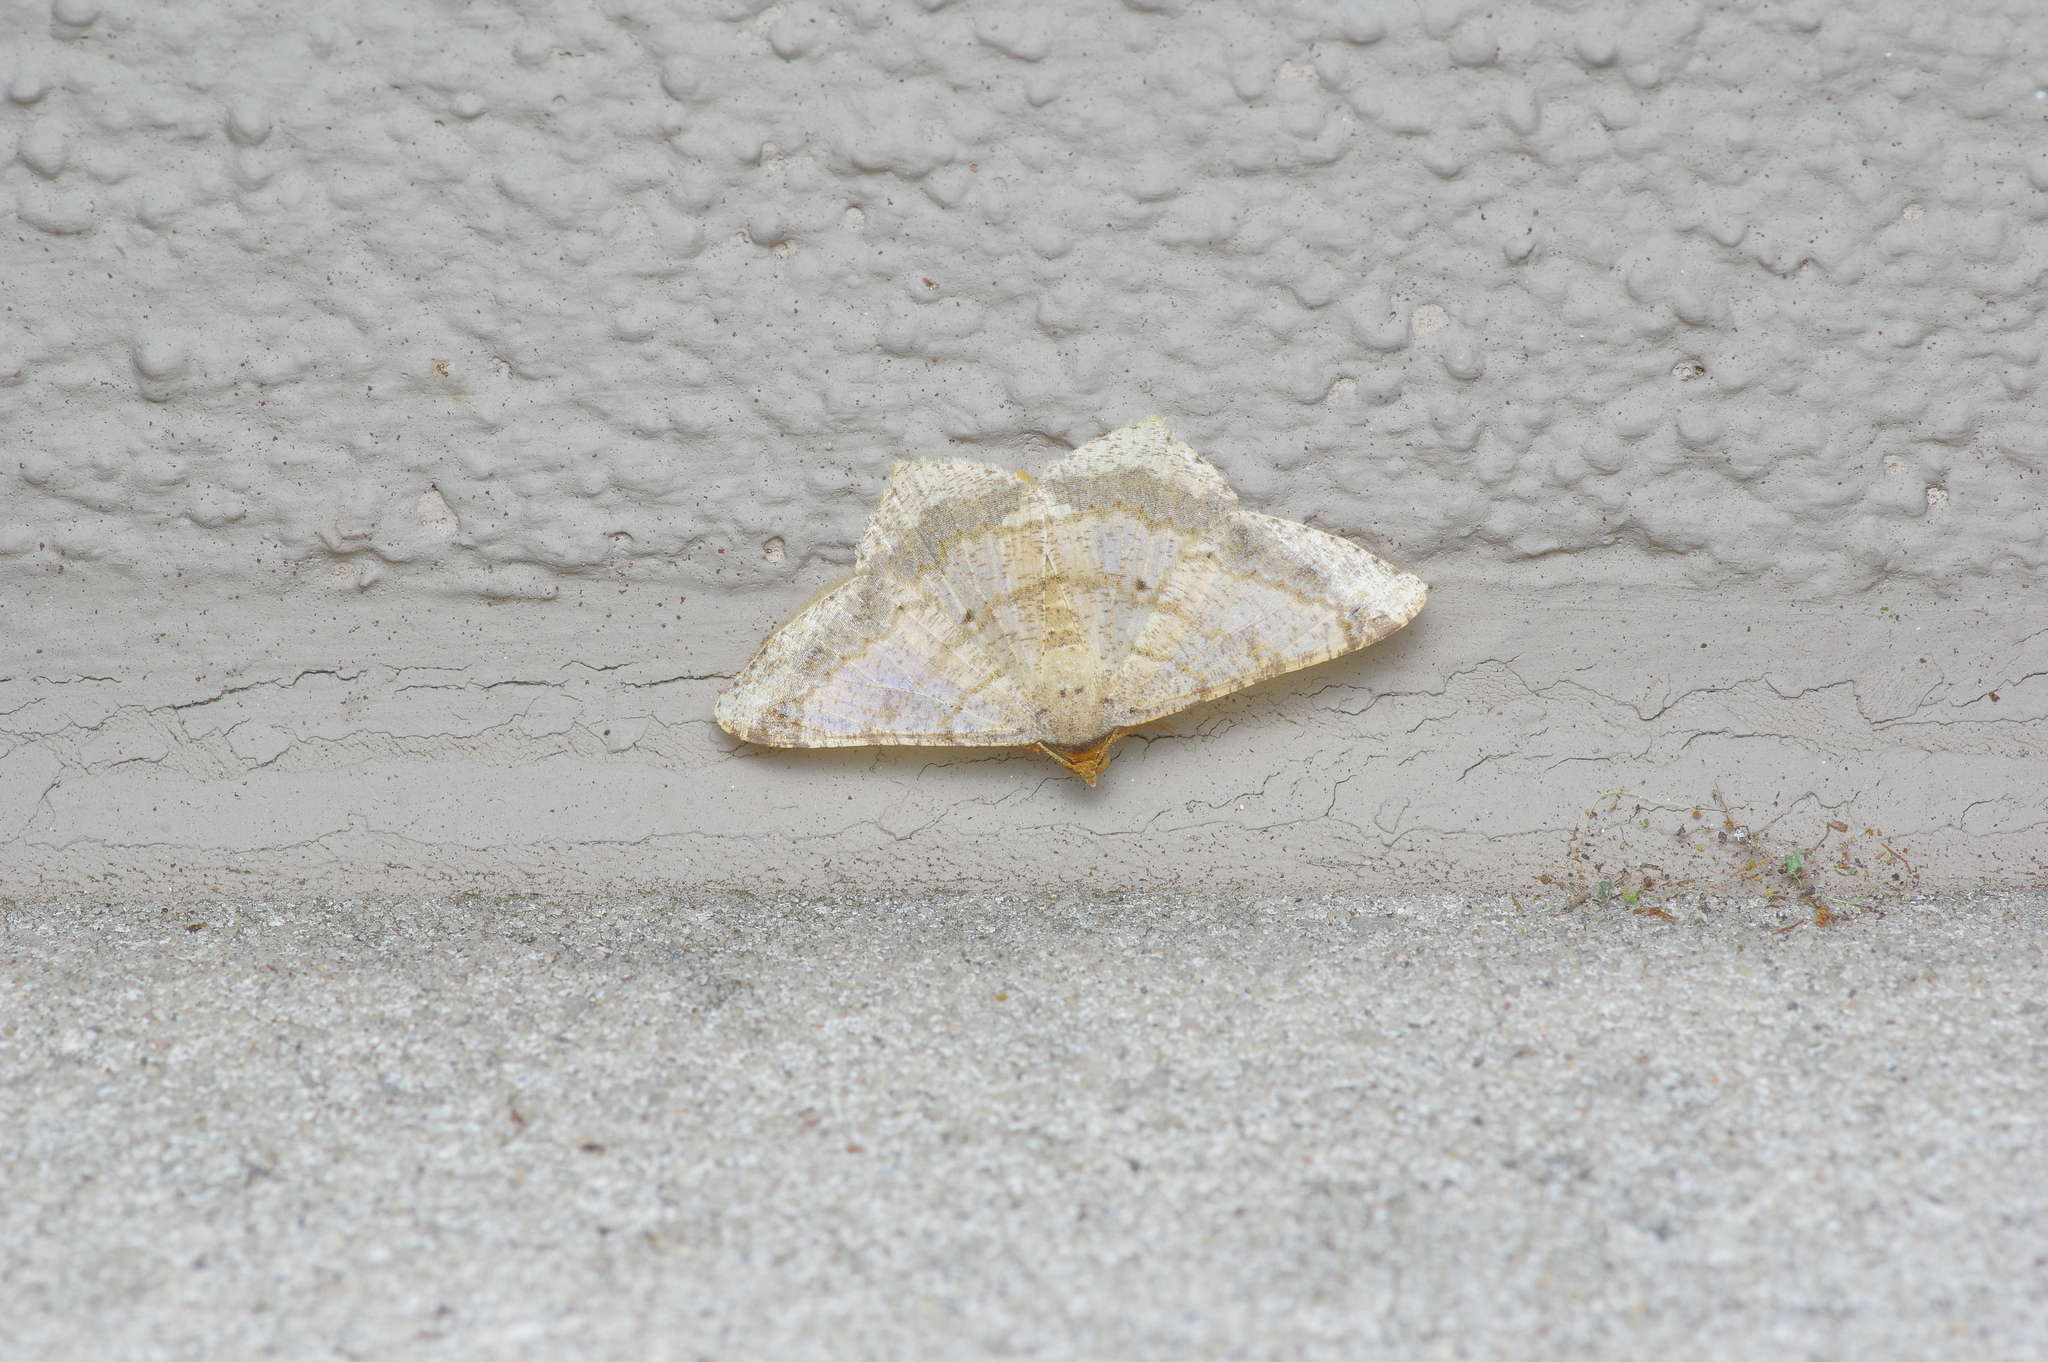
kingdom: Animalia
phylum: Arthropoda
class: Insecta
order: Lepidoptera
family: Geometridae
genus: Macaria
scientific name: Macaria abydata
